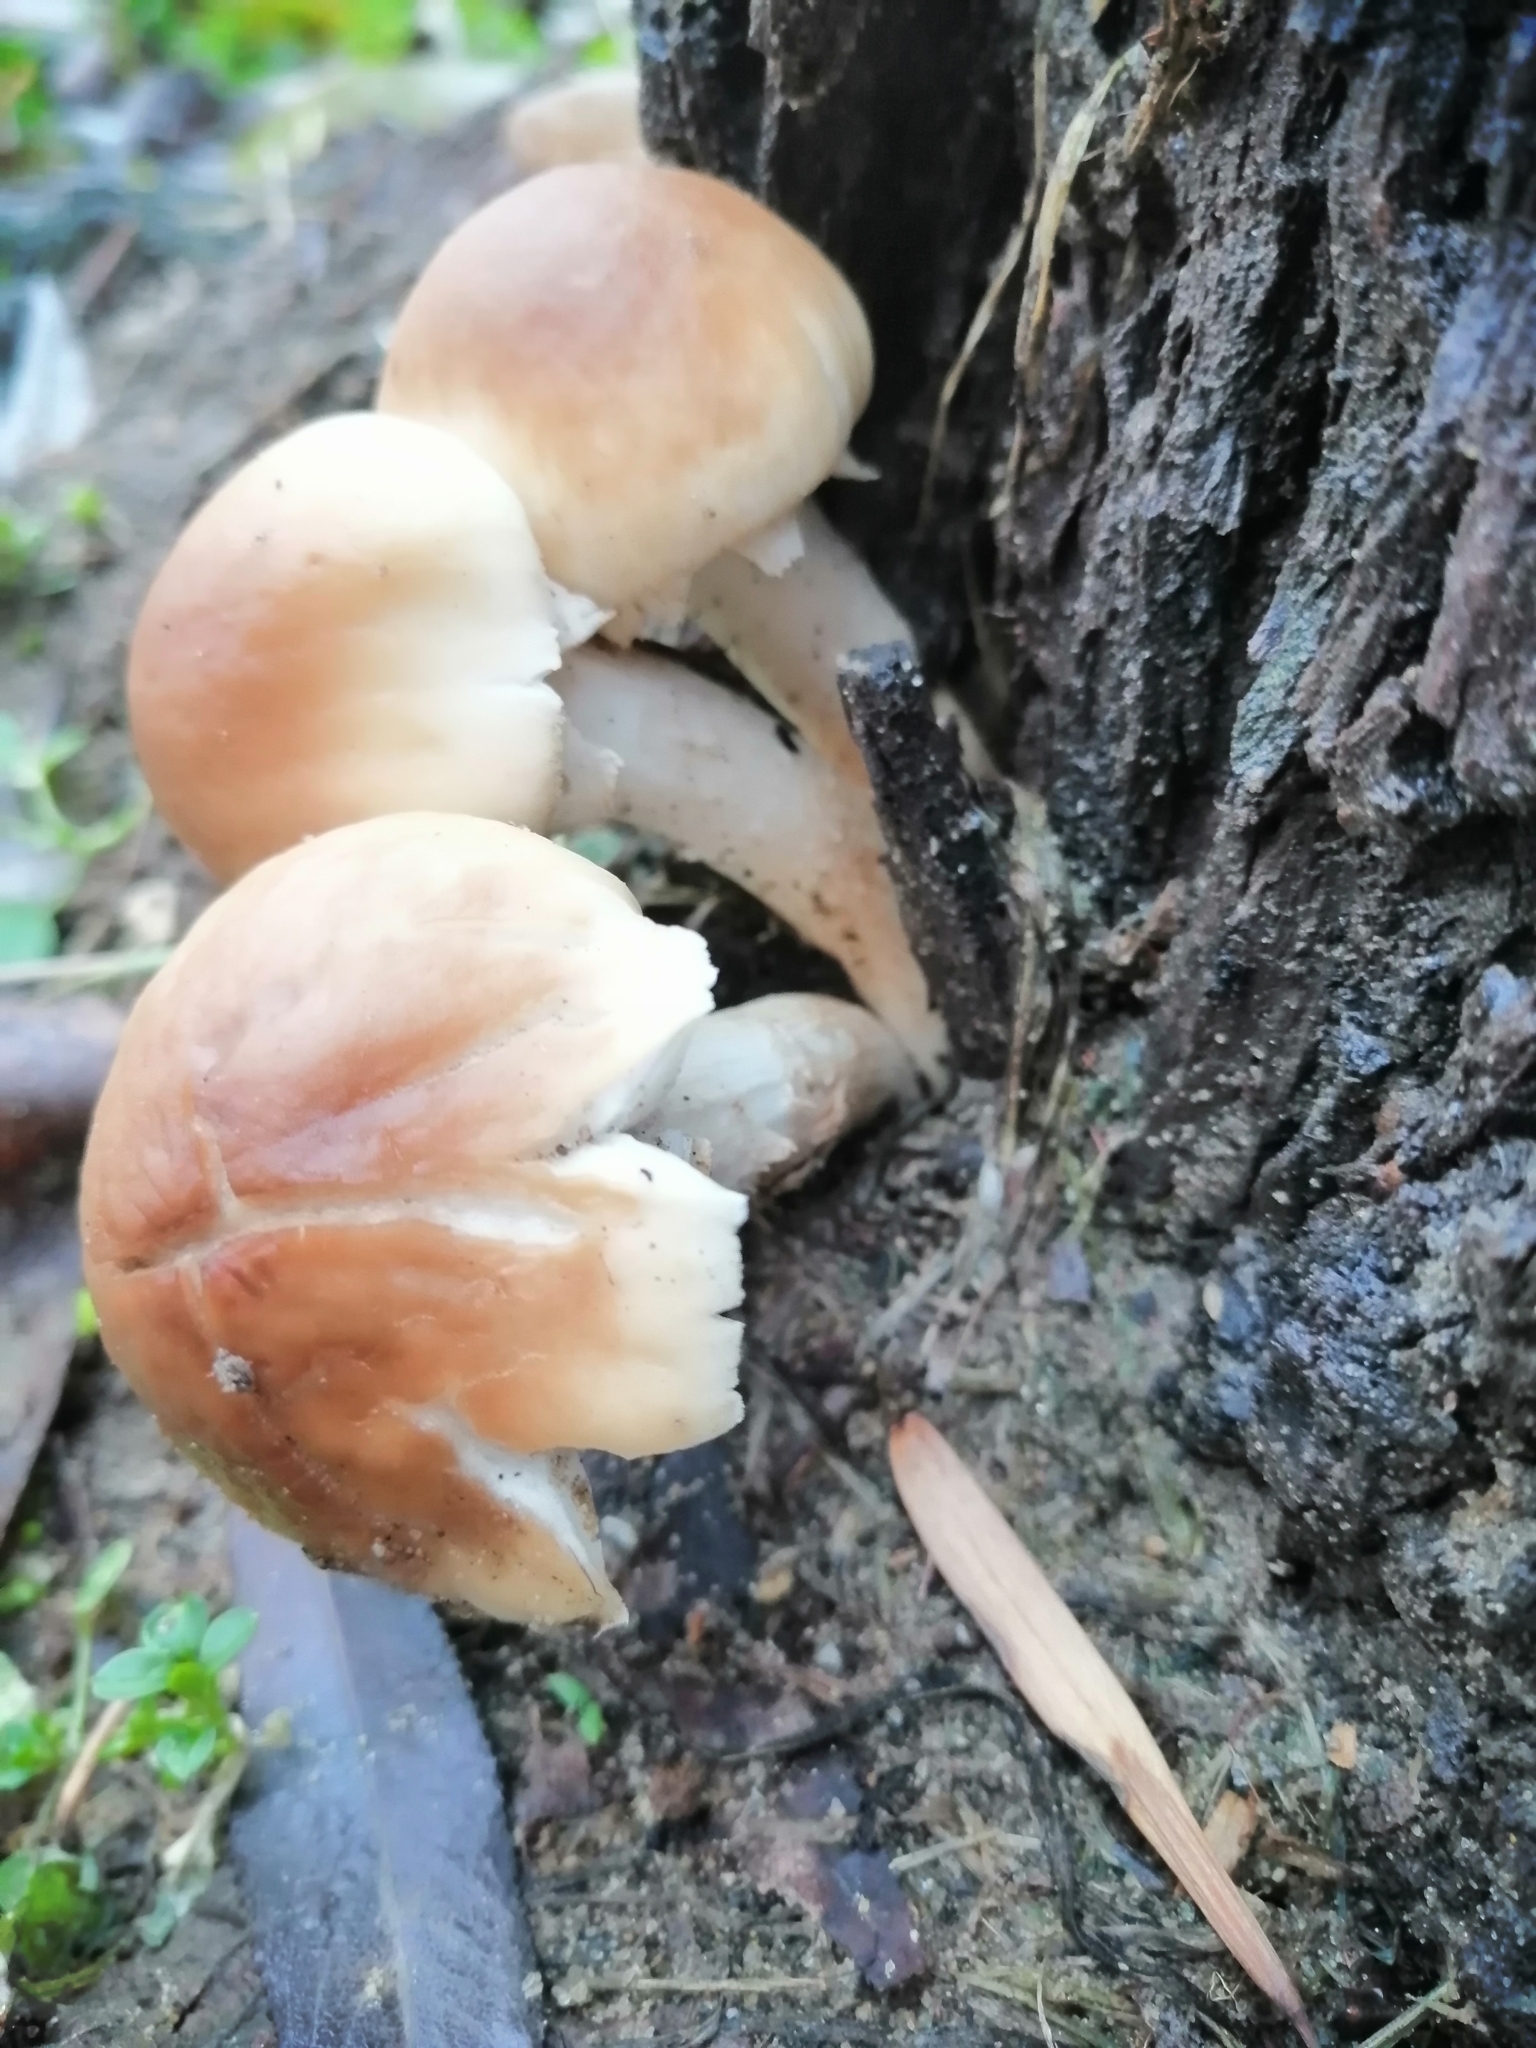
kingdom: Fungi
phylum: Basidiomycota
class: Agaricomycetes
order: Agaricales
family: Tubariaceae
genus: Cyclocybe
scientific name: Cyclocybe cylindracea
